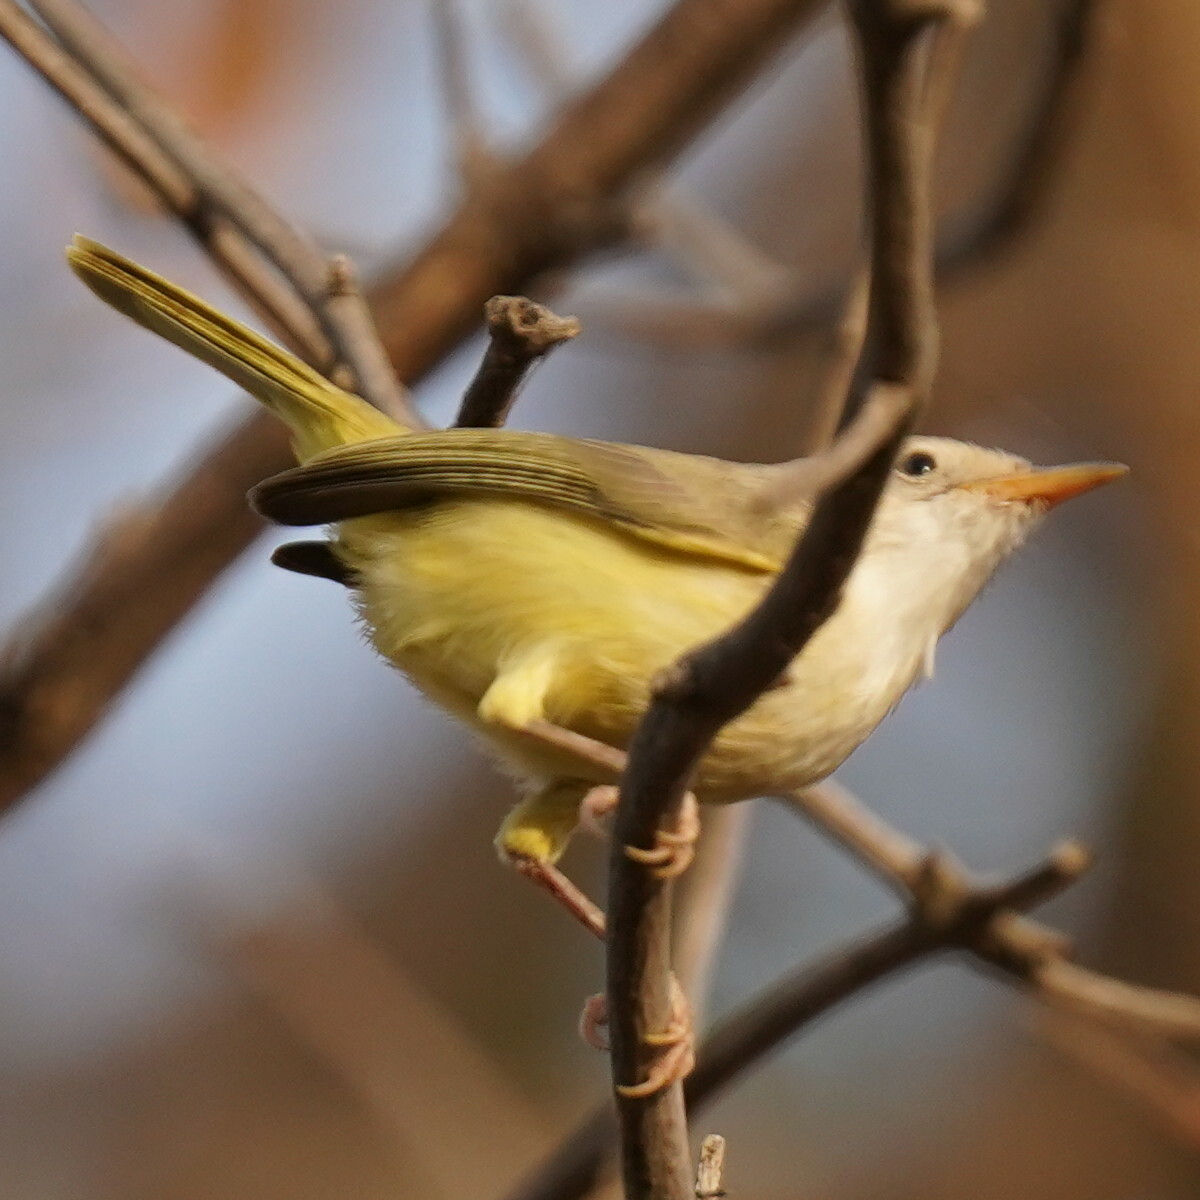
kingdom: Animalia
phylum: Chordata
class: Aves
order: Passeriformes
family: Cisticolidae
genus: Eremomela
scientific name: Eremomela pusilla
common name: Senegal eremomela
